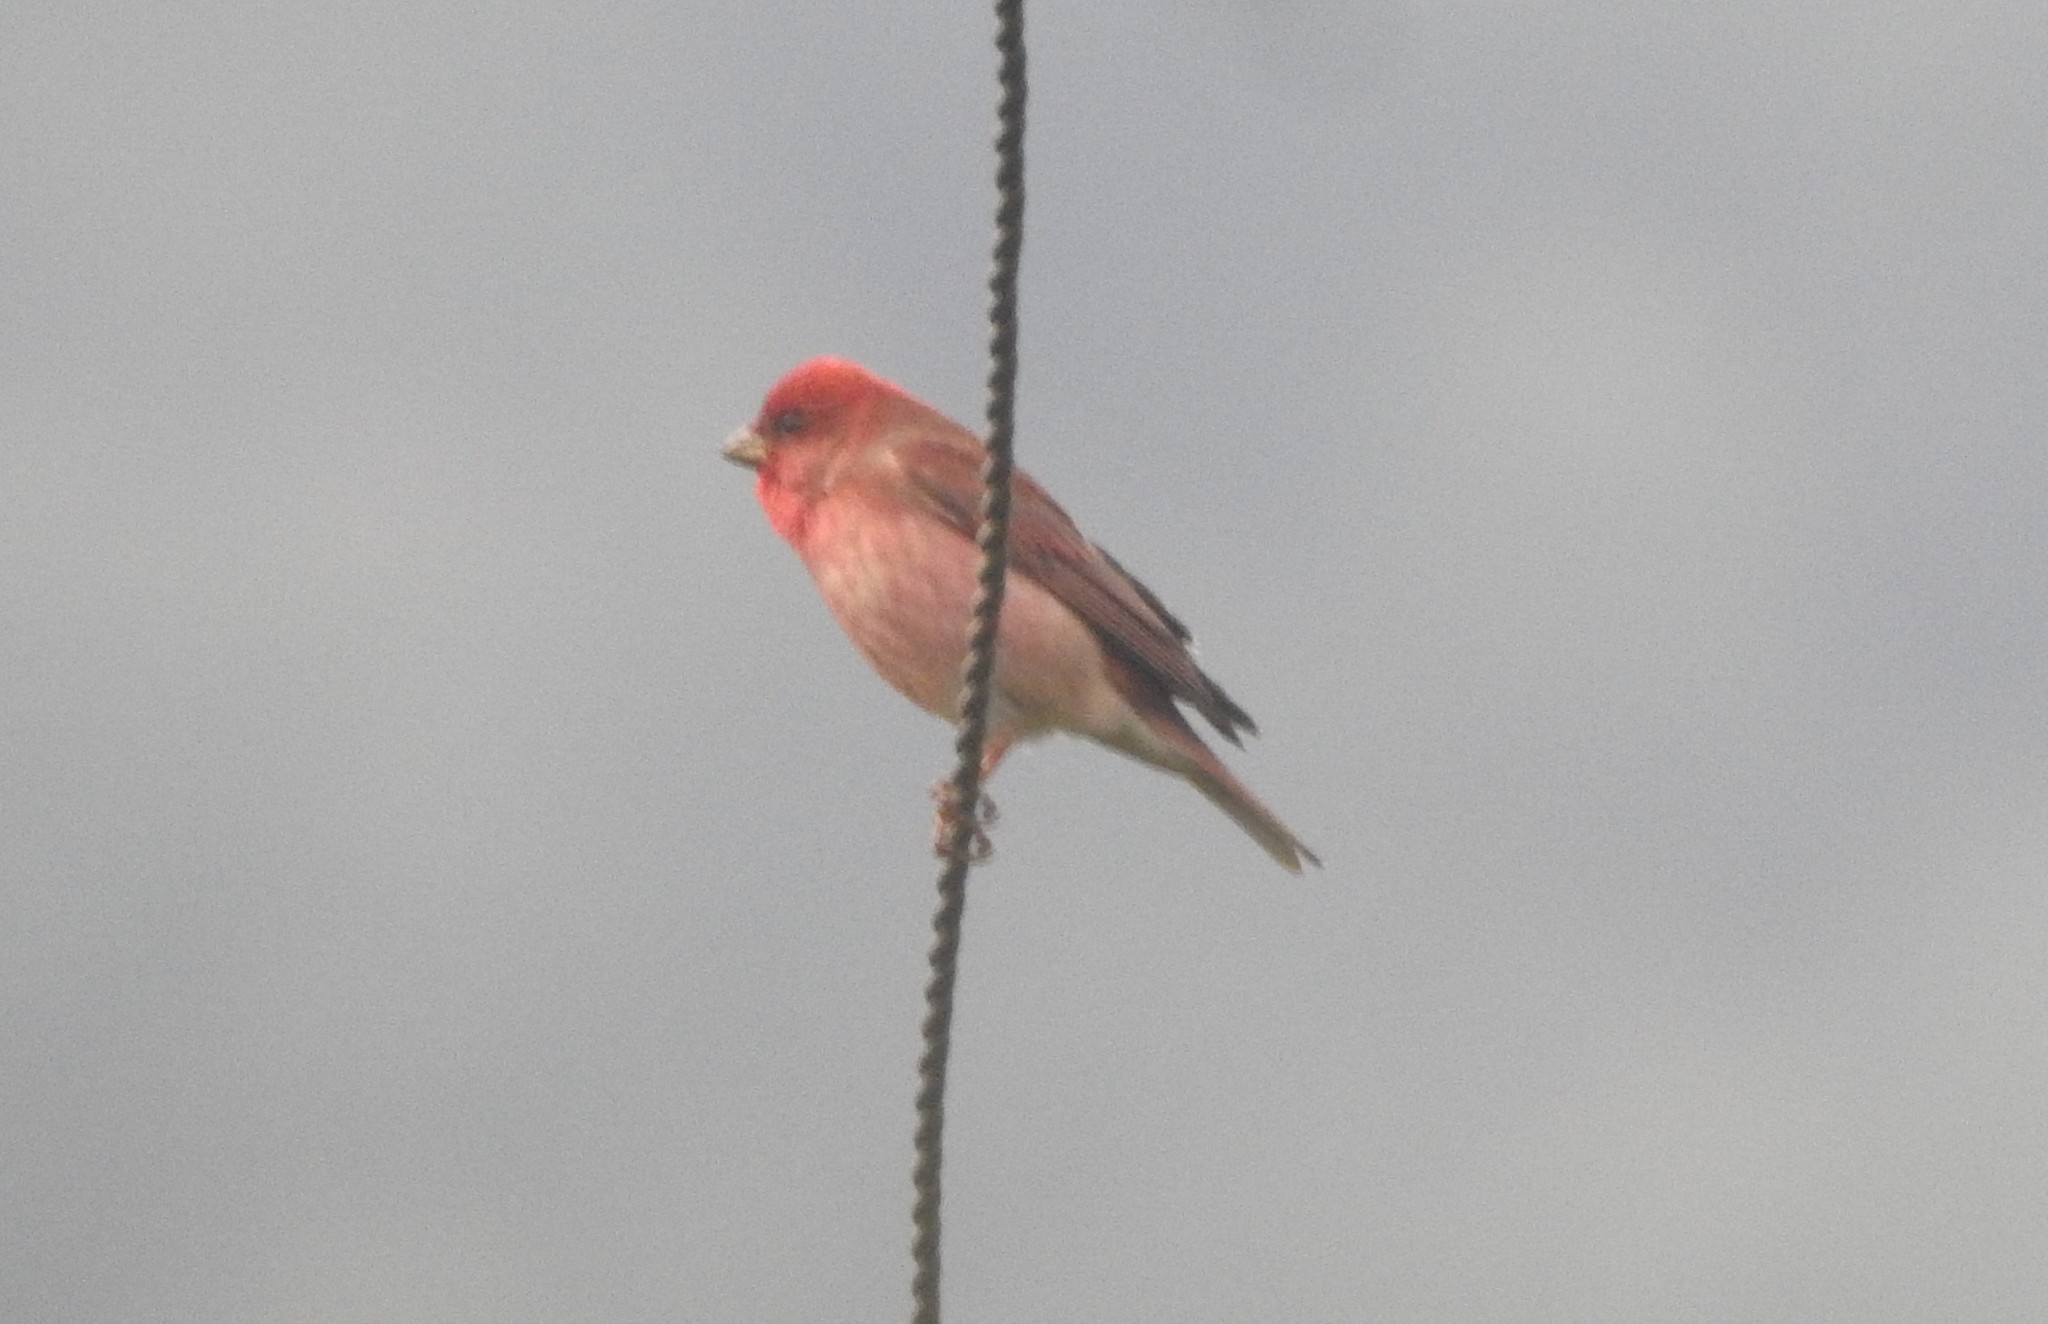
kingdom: Animalia
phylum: Chordata
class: Aves
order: Passeriformes
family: Fringillidae
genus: Carpodacus
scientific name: Carpodacus erythrinus
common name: Common rosefinch
